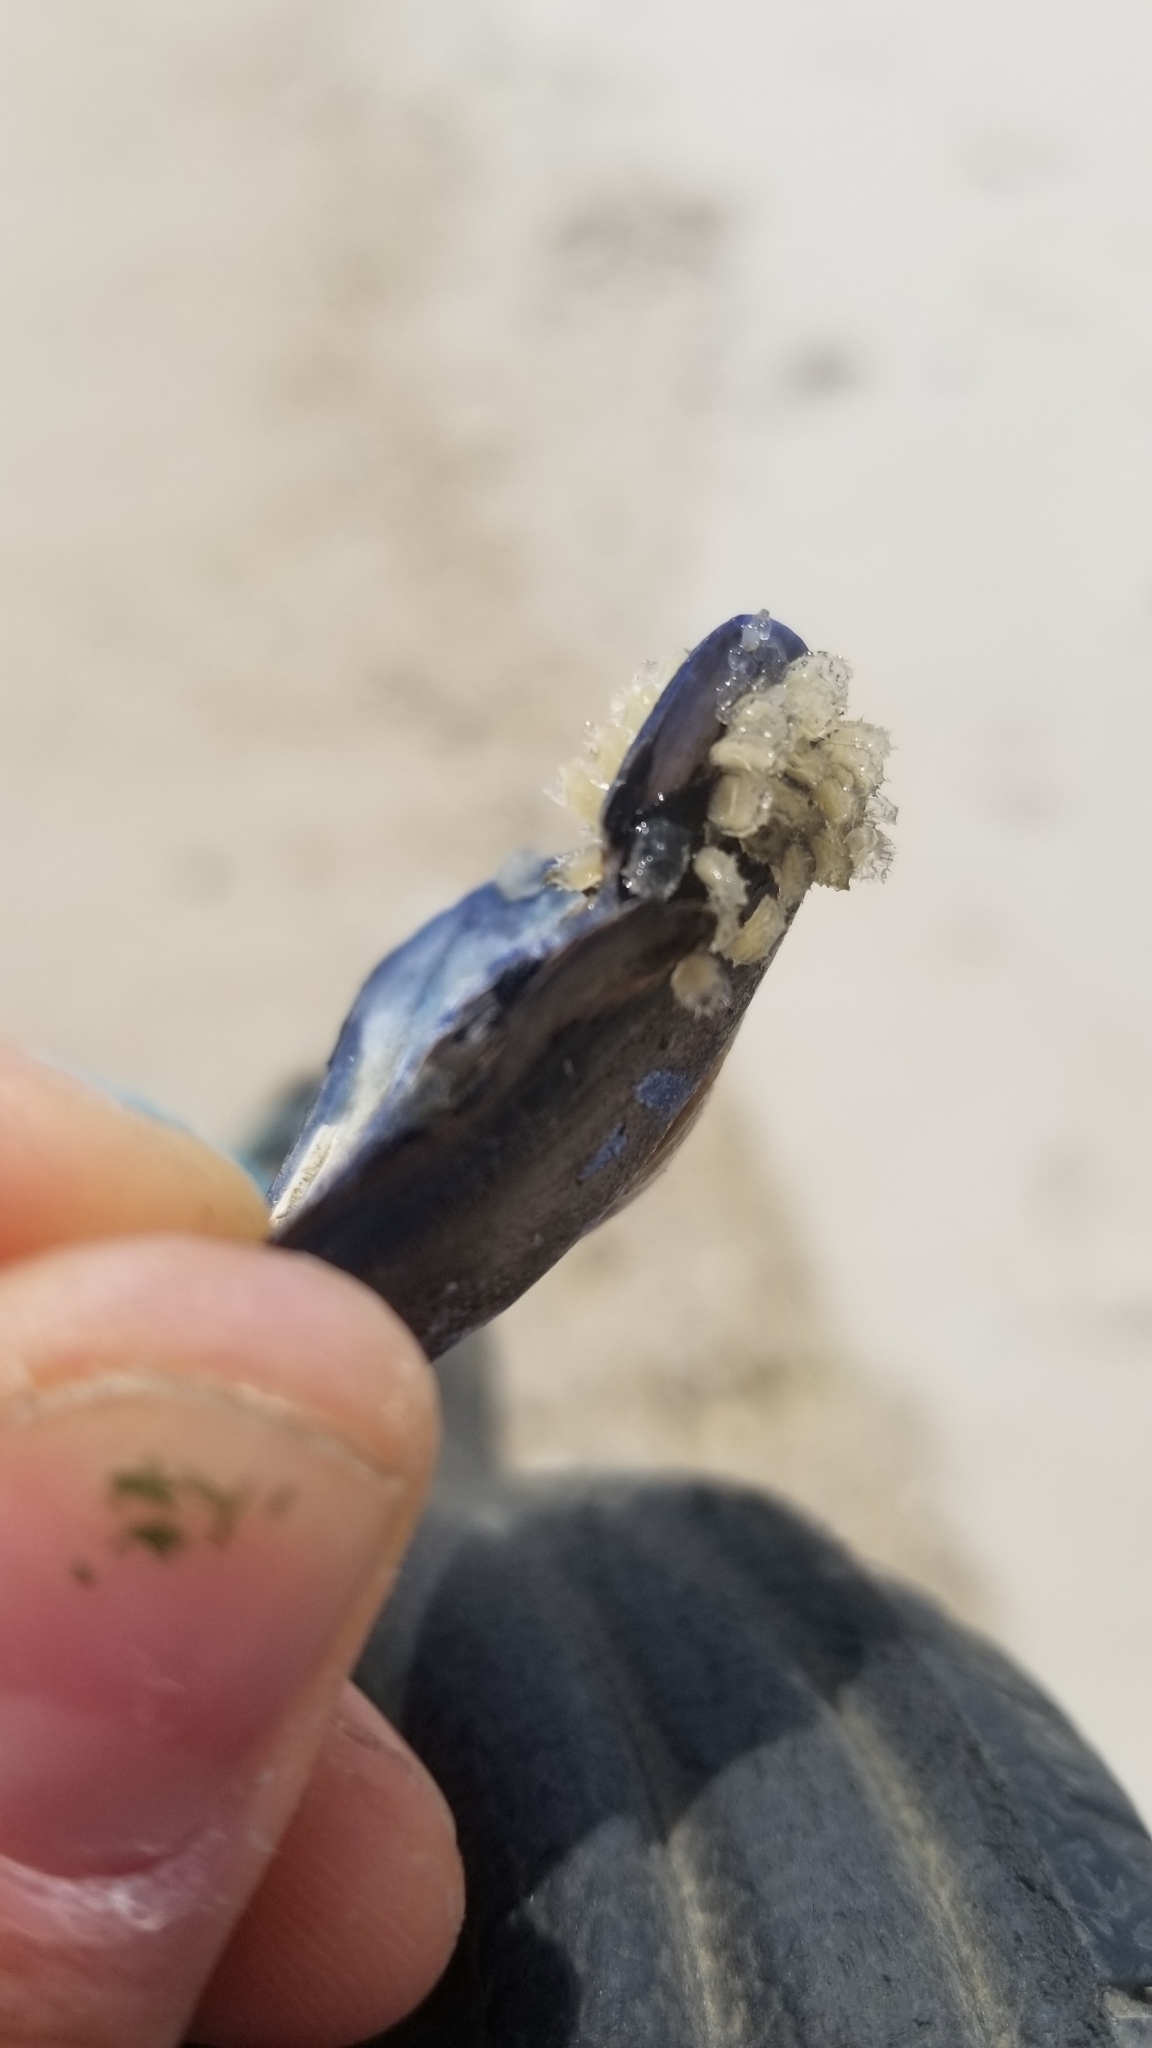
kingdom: Animalia
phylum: Mollusca
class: Gastropoda
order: Neogastropoda
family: Nassariidae
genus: Ilyanassa
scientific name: Ilyanassa obsoleta
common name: Eastern mudsnail
